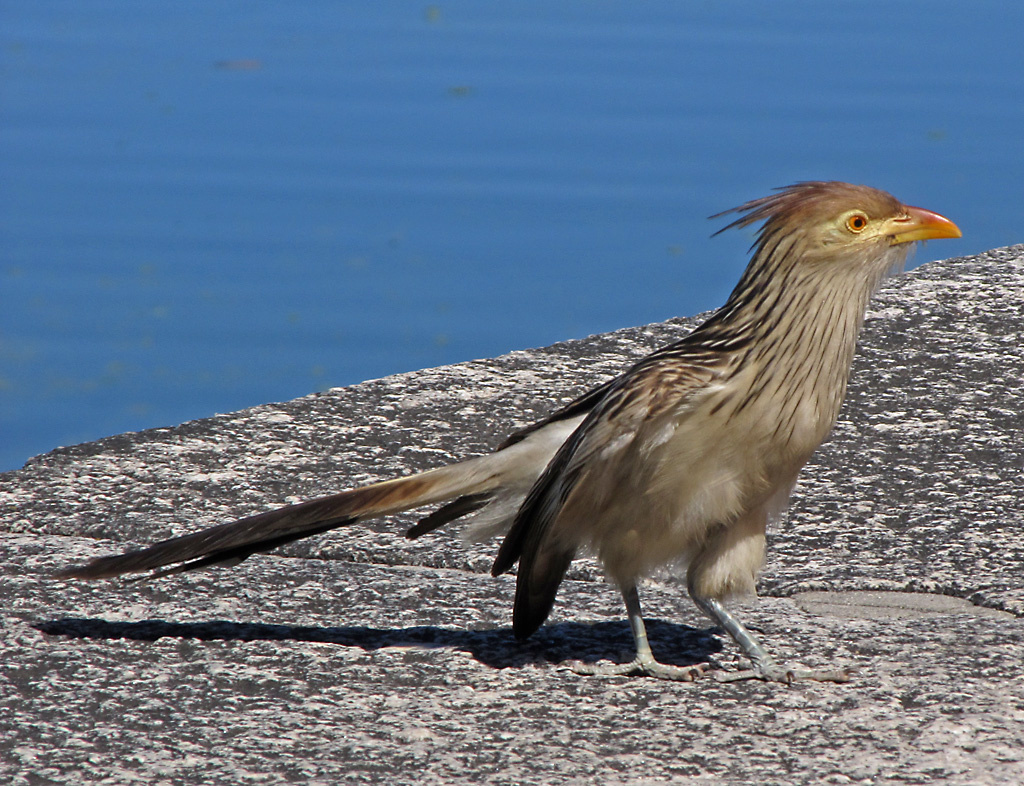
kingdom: Animalia
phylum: Chordata
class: Aves
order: Cuculiformes
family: Cuculidae
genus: Guira
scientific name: Guira guira
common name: Guira cuckoo
